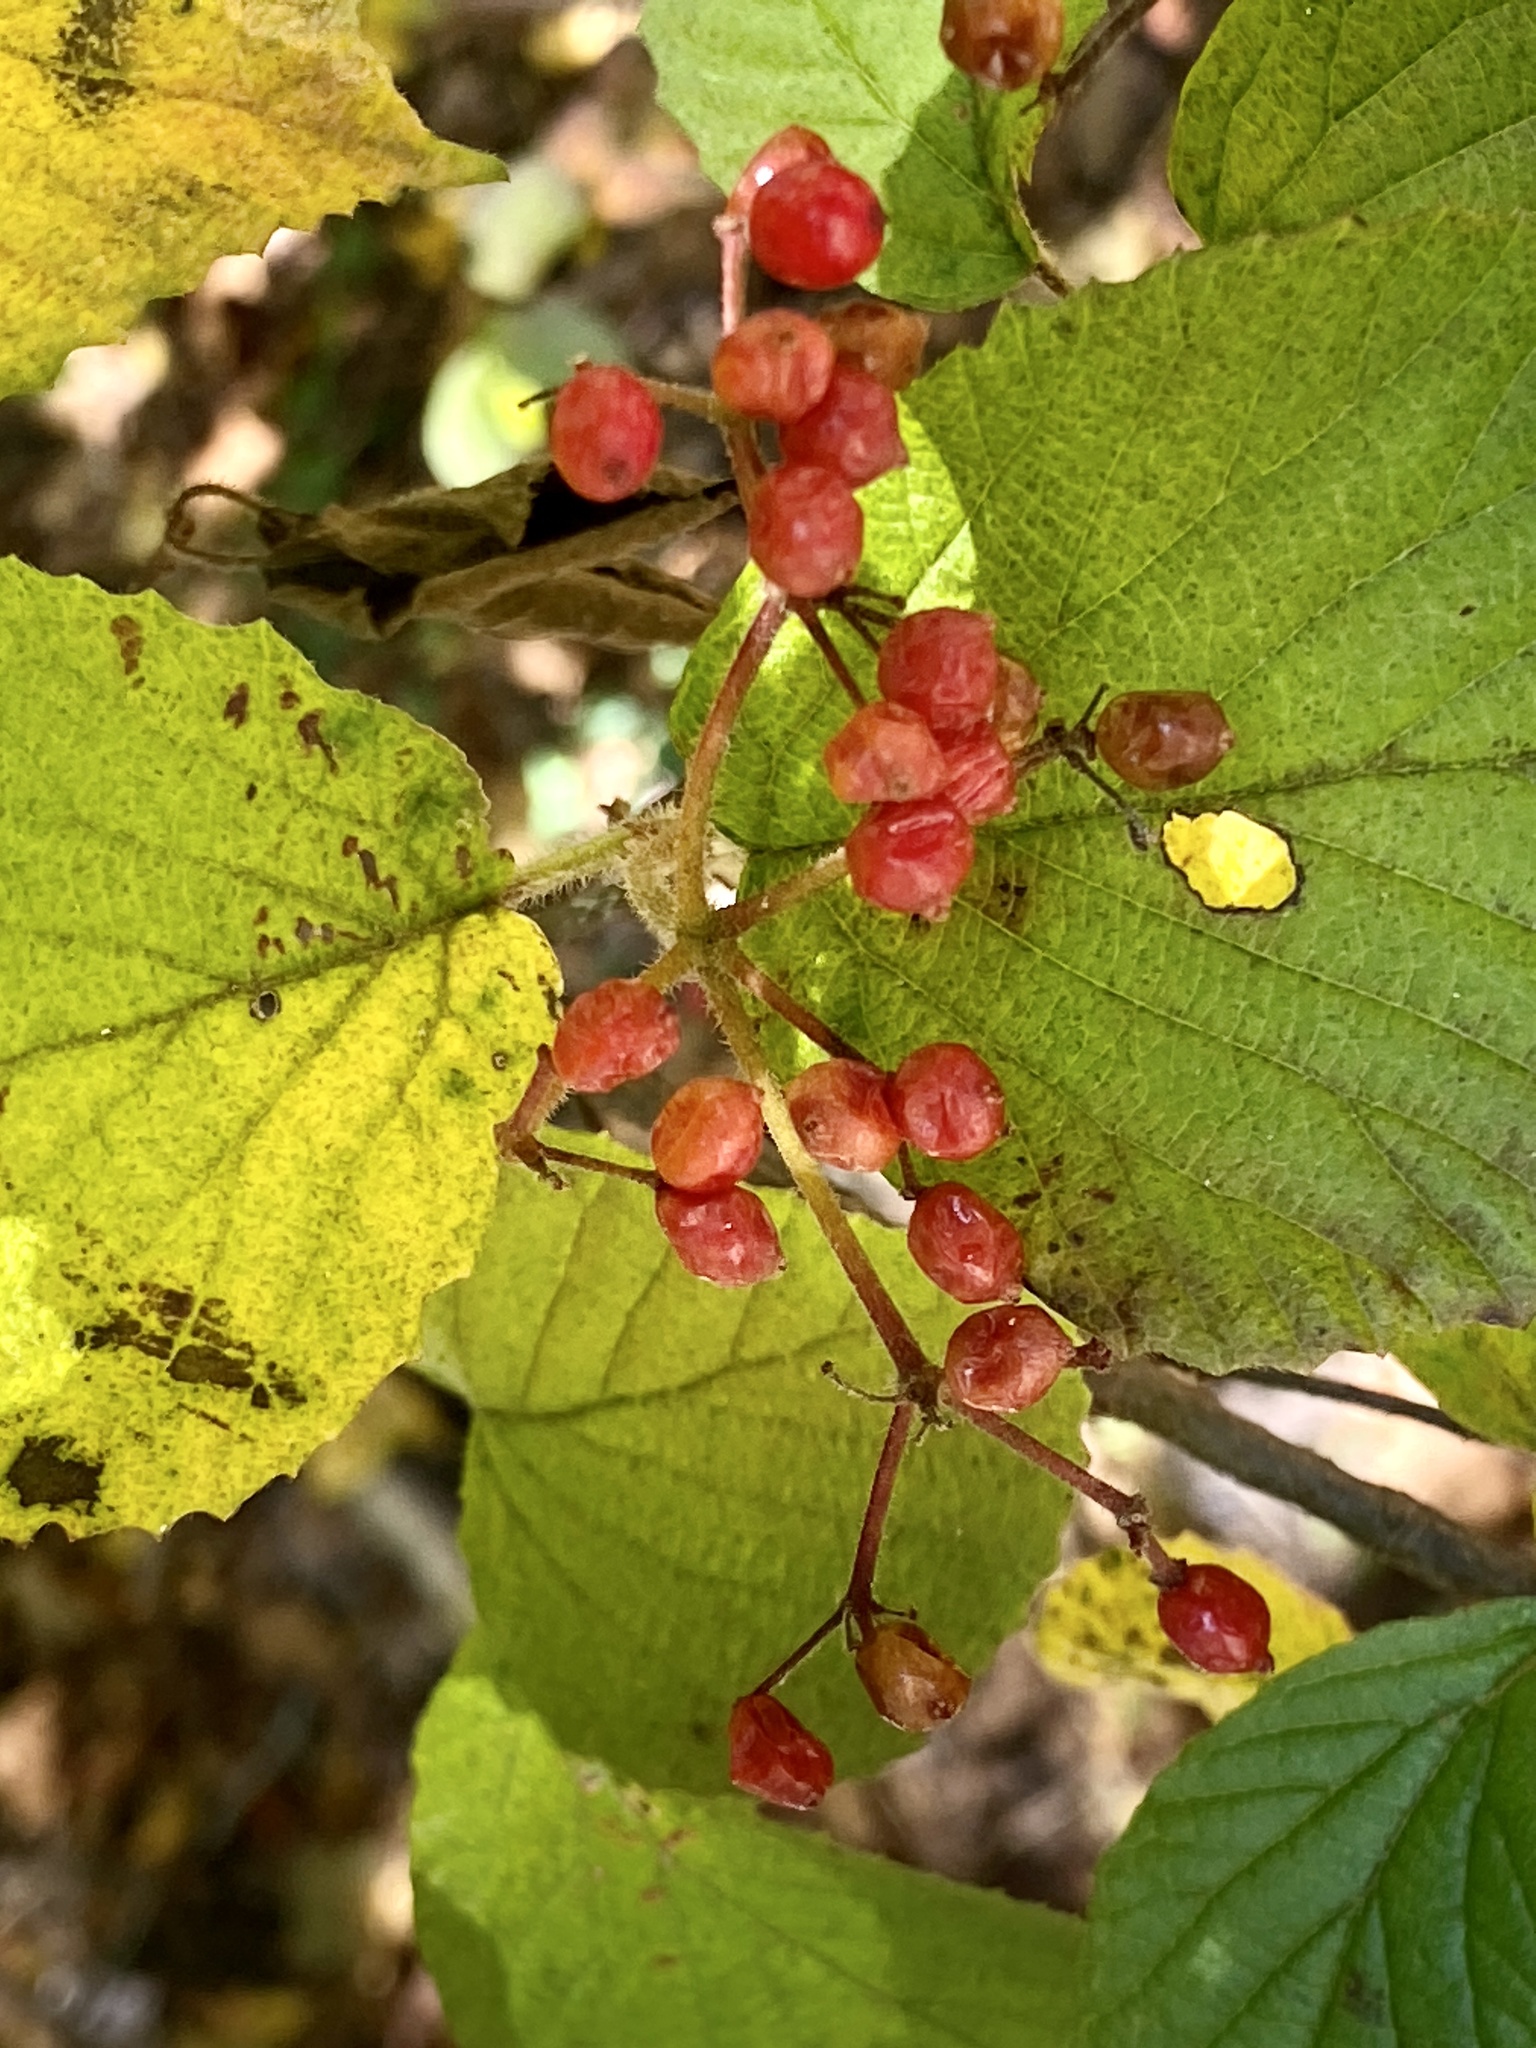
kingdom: Plantae
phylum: Tracheophyta
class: Magnoliopsida
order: Dipsacales
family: Viburnaceae
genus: Viburnum
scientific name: Viburnum dilatatum
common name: Linden arrowwood
